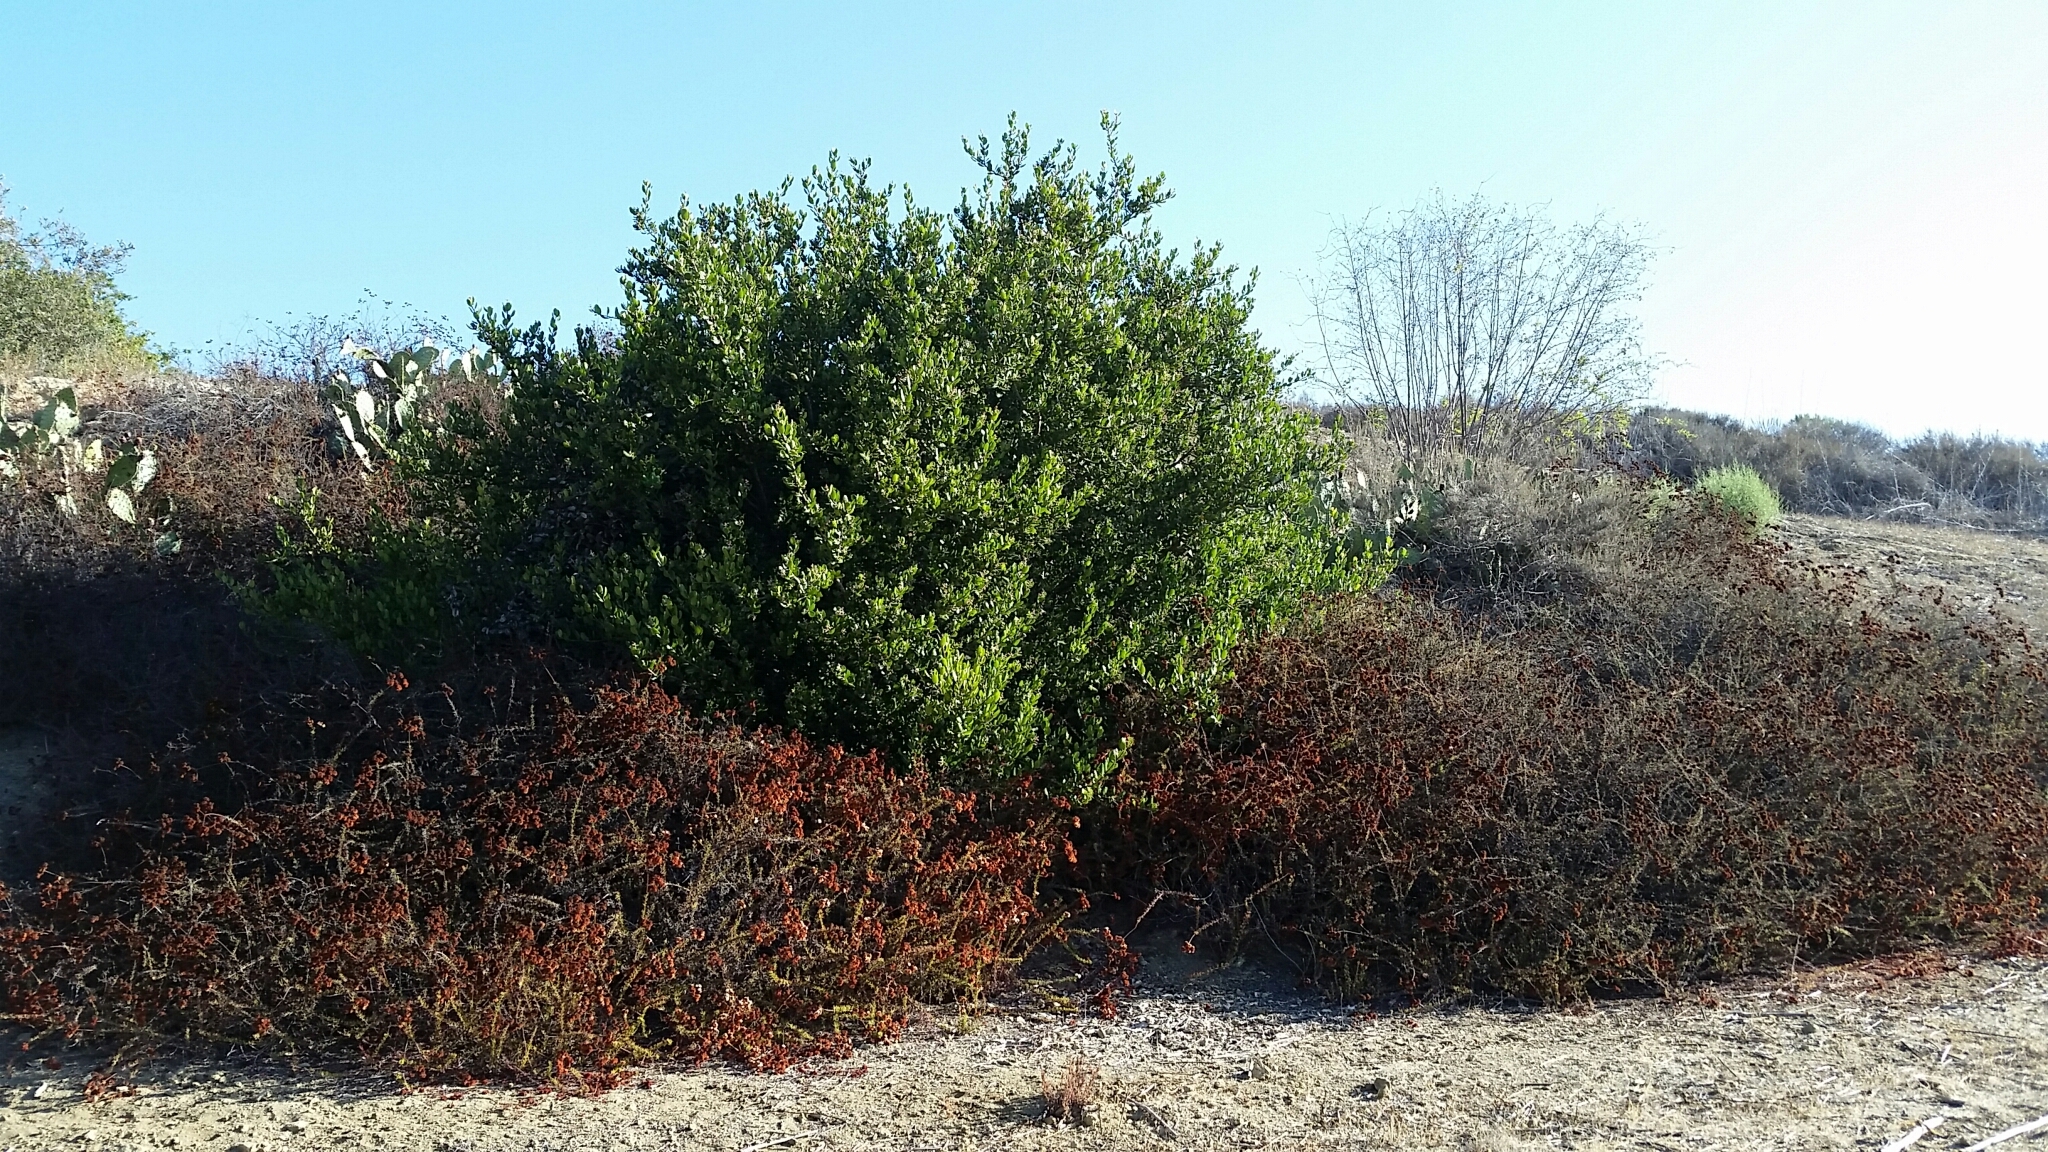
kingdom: Plantae
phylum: Tracheophyta
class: Magnoliopsida
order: Sapindales
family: Anacardiaceae
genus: Rhus
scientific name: Rhus integrifolia
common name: Lemonade sumac
